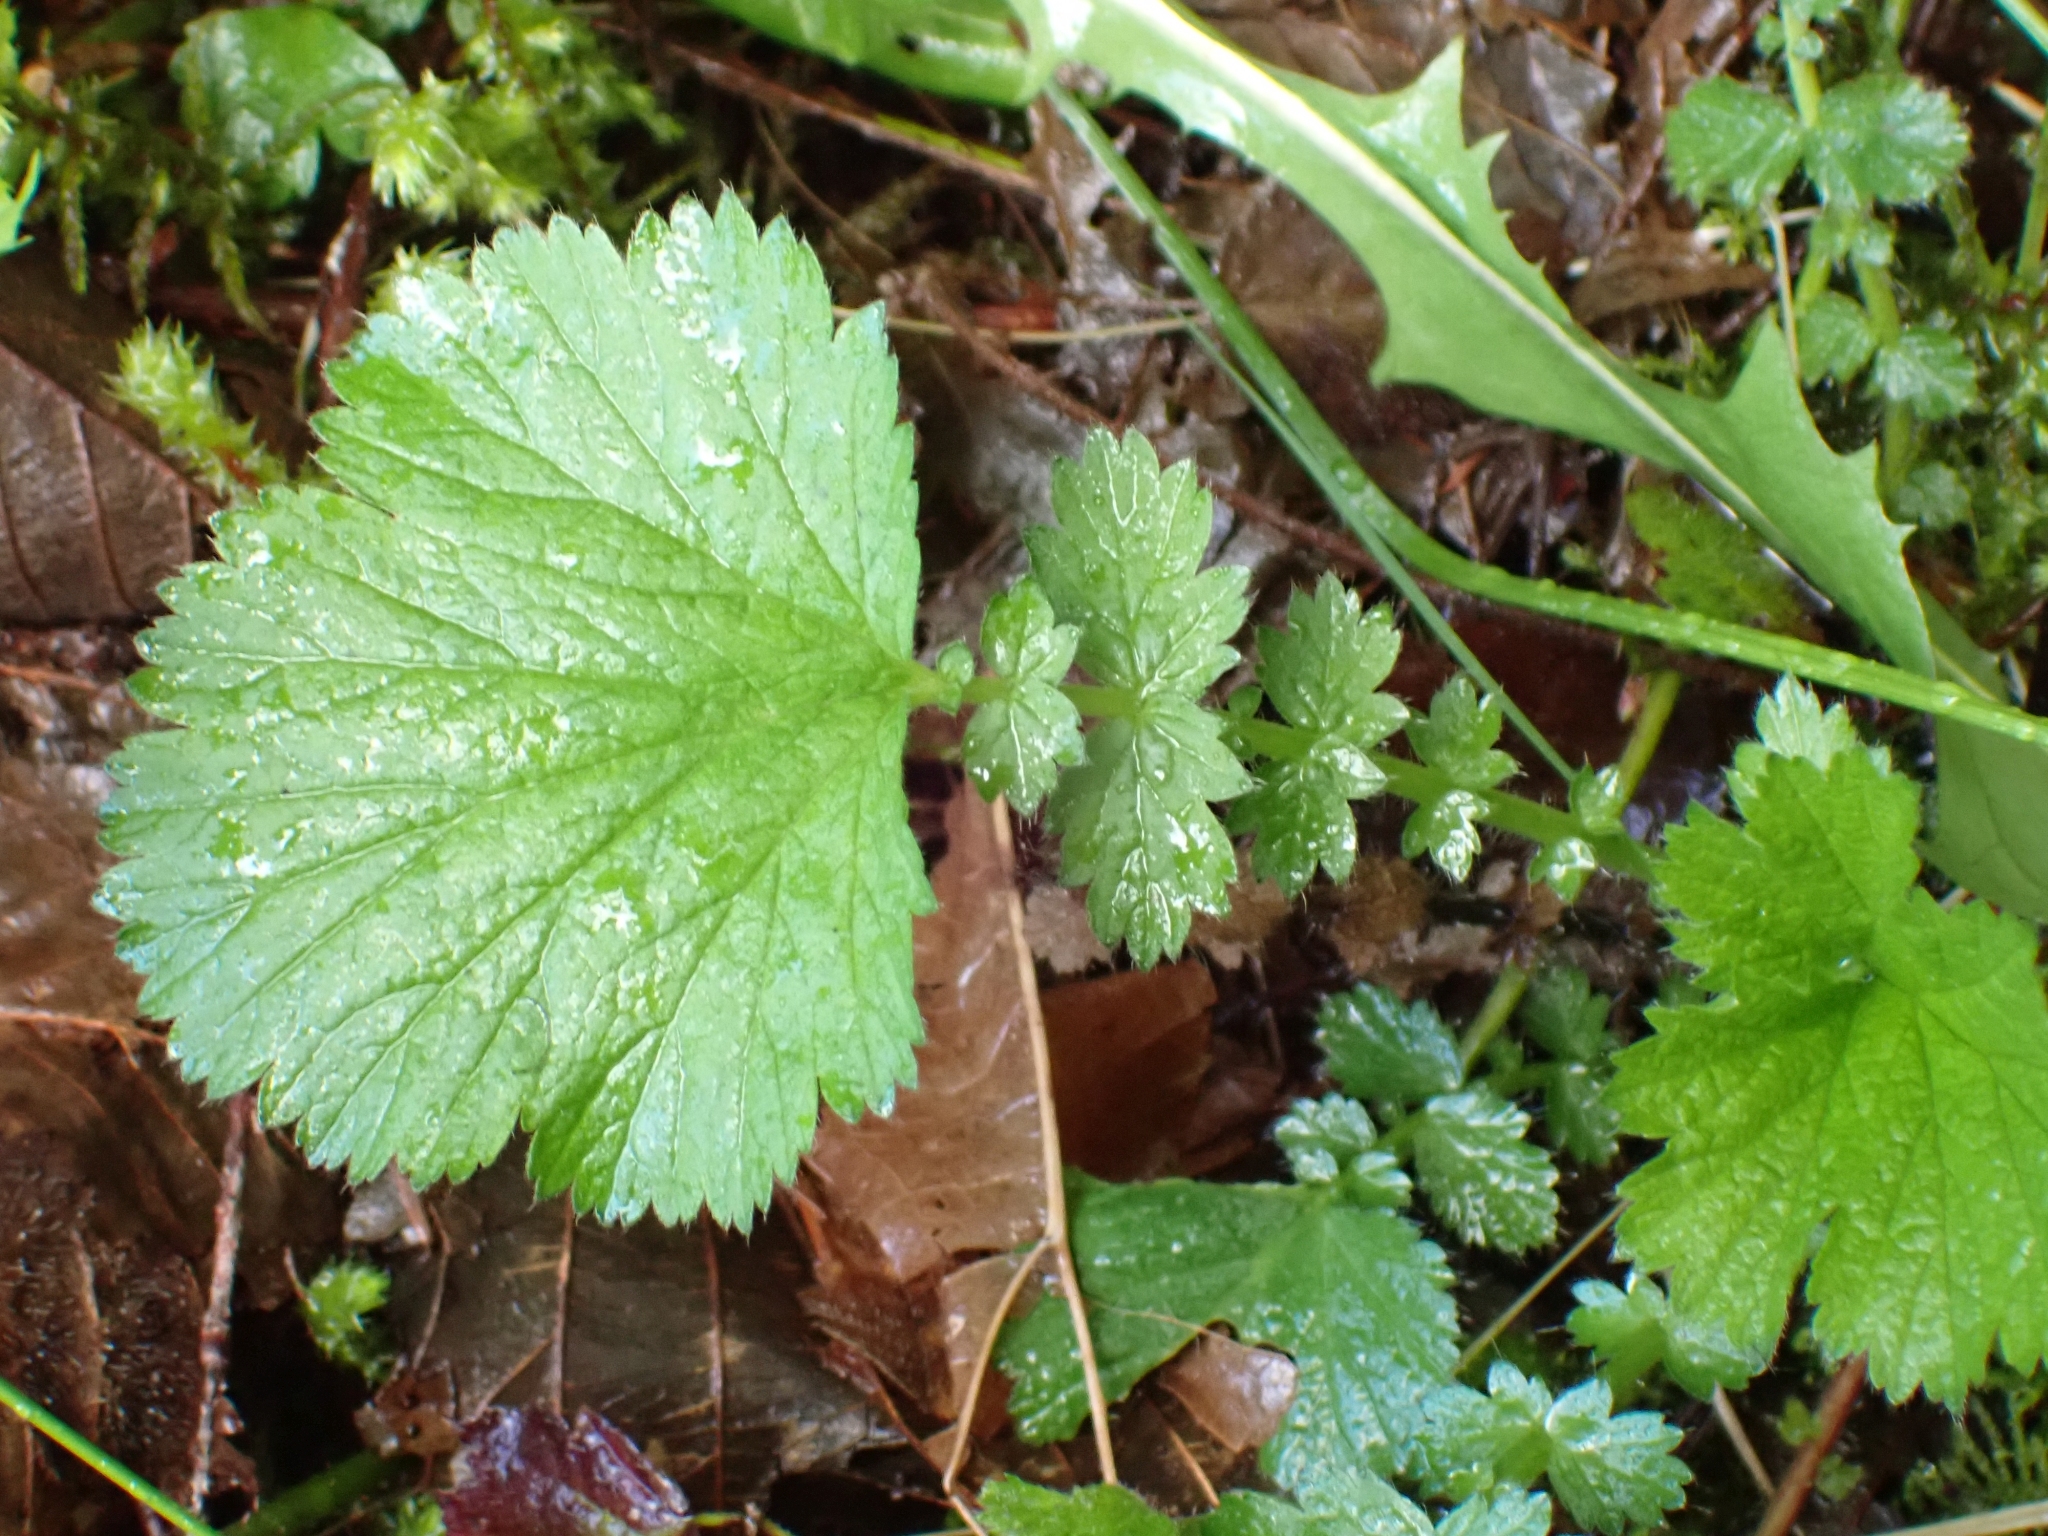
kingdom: Plantae
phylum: Tracheophyta
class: Magnoliopsida
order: Rosales
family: Rosaceae
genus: Geum
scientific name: Geum macrophyllum
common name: Large-leaved avens
